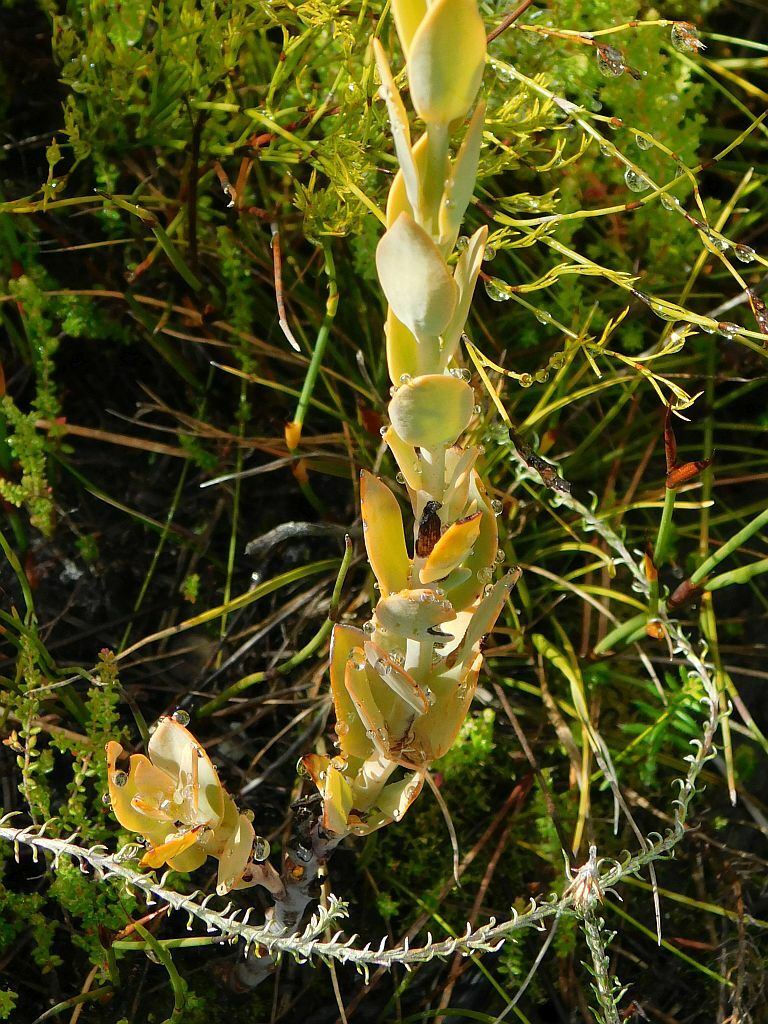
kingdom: Plantae
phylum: Tracheophyta
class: Magnoliopsida
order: Santalales
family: Thesiaceae
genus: Thesium
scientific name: Thesium euphorbioides
